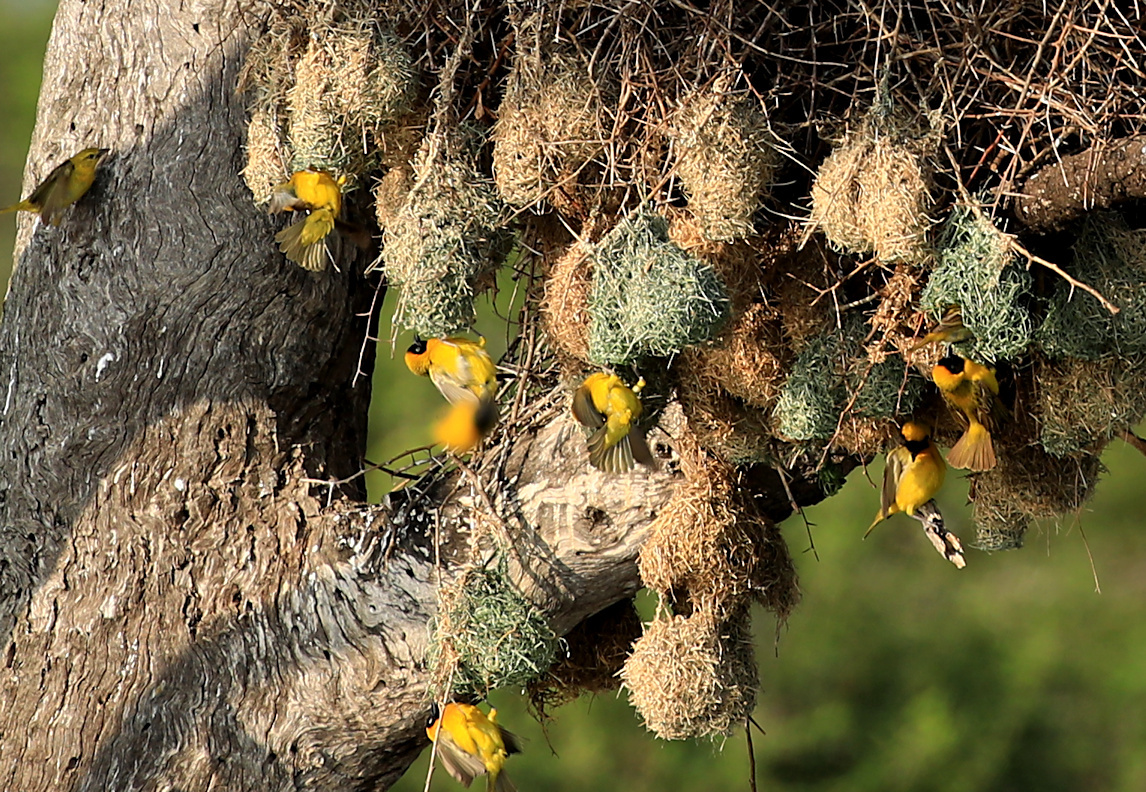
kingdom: Animalia
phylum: Chordata
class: Aves
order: Passeriformes
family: Ploceidae
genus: Ploceus
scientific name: Ploceus intermedius
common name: Lesser masked weaver
